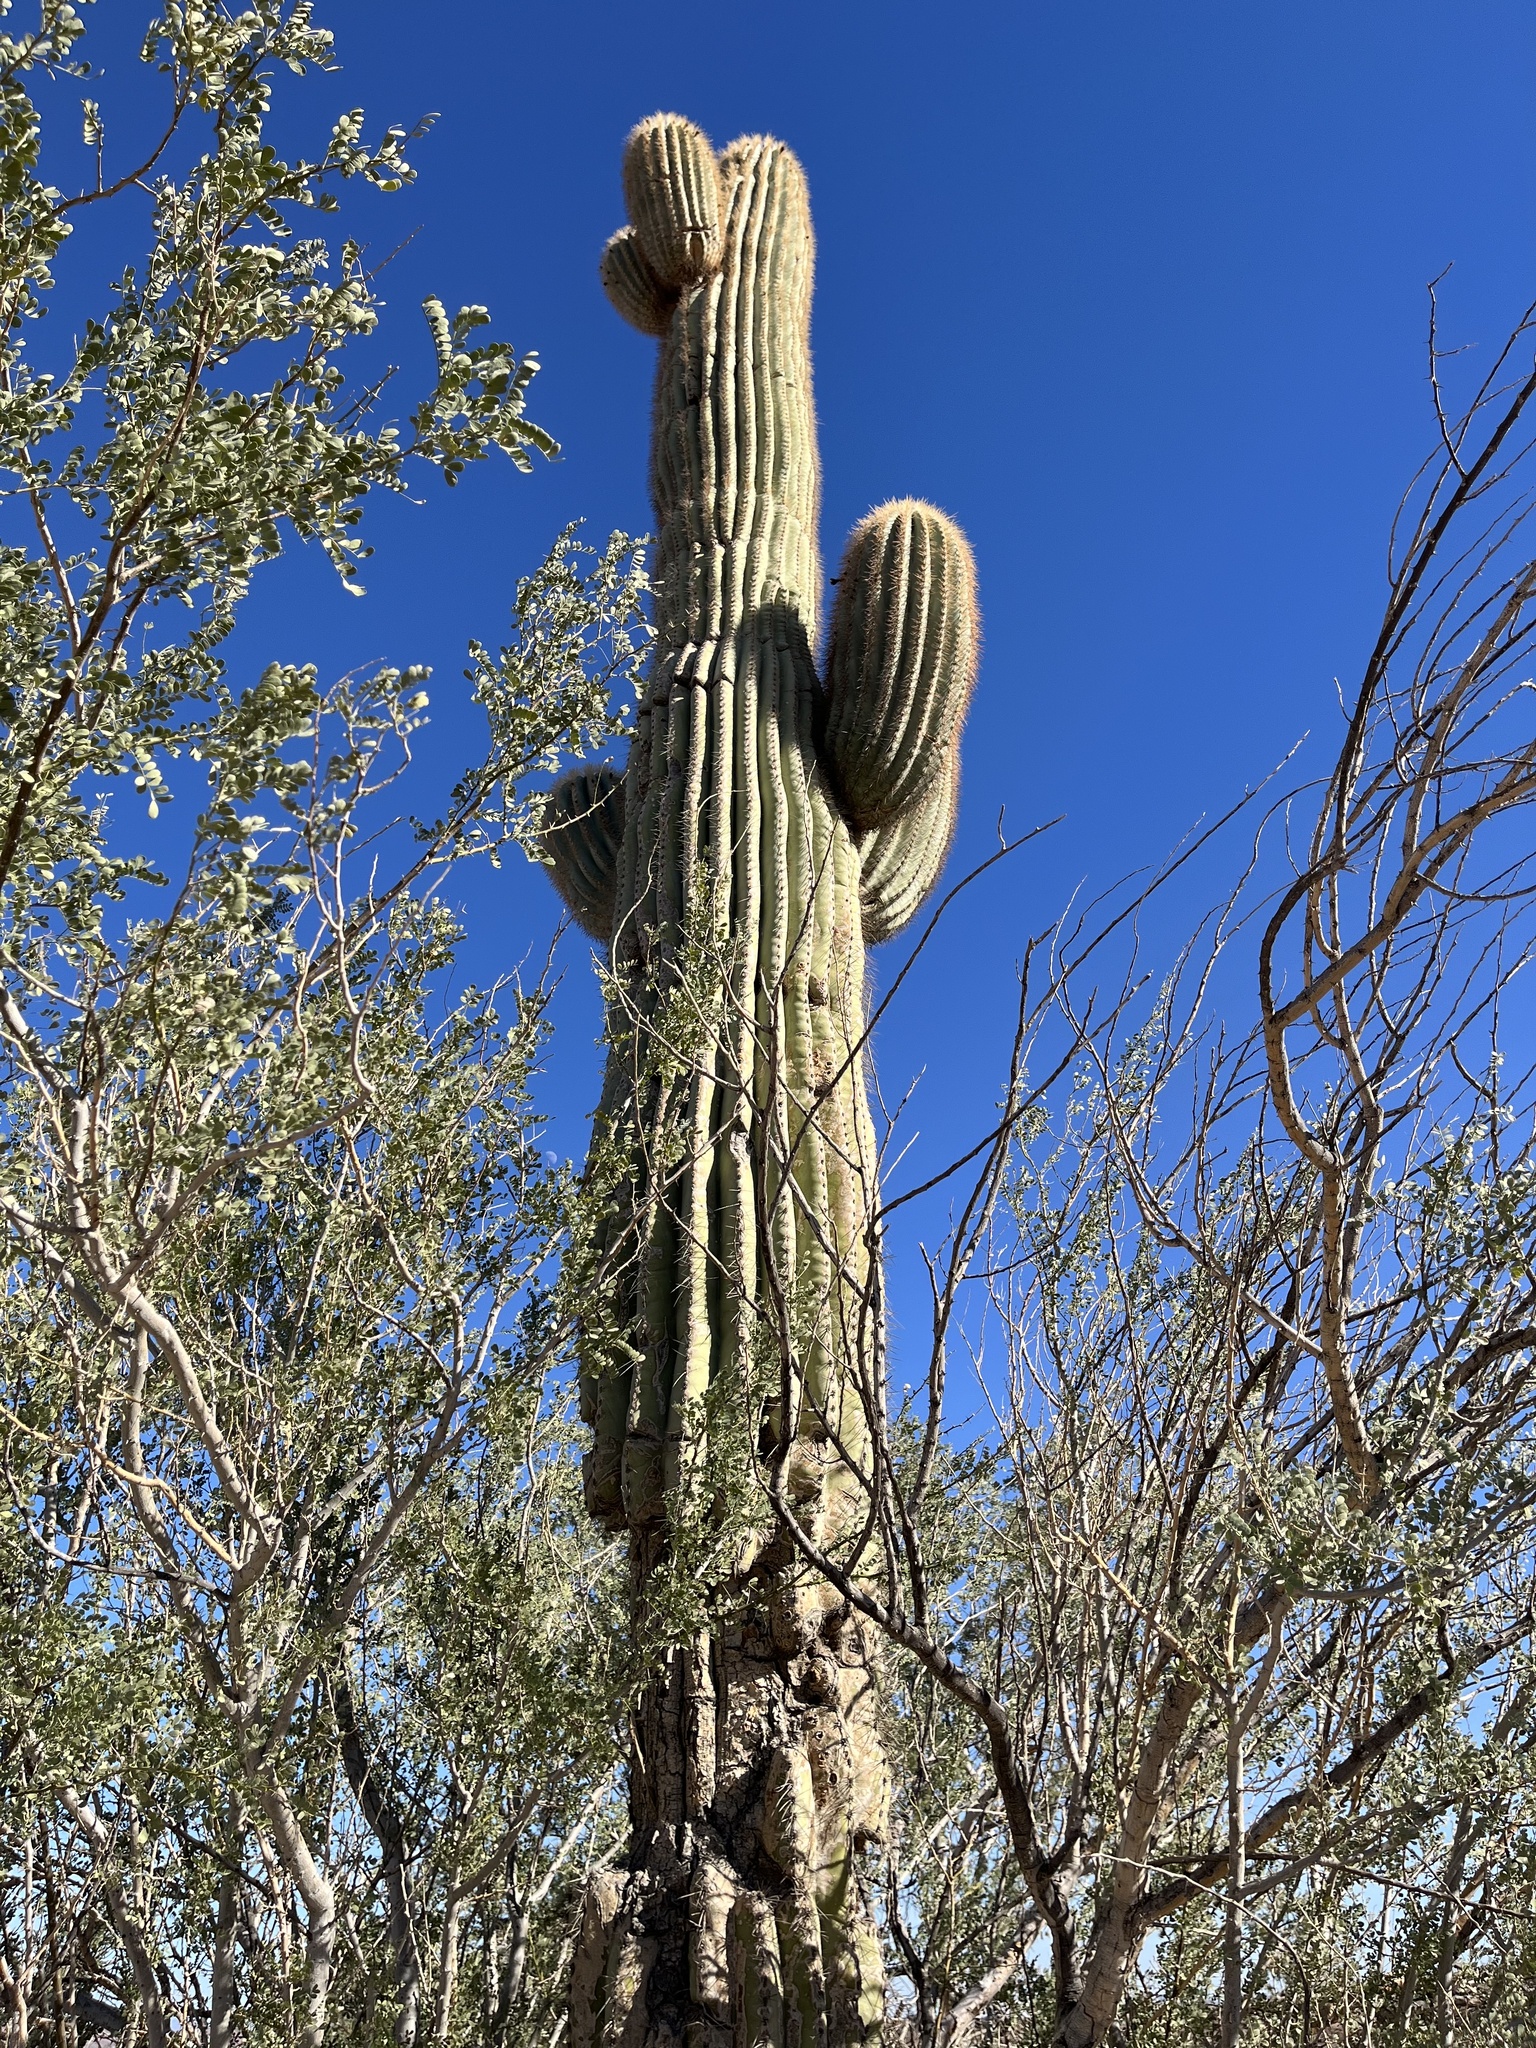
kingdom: Plantae
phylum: Tracheophyta
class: Magnoliopsida
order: Caryophyllales
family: Cactaceae
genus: Carnegiea
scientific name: Carnegiea gigantea
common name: Saguaro
